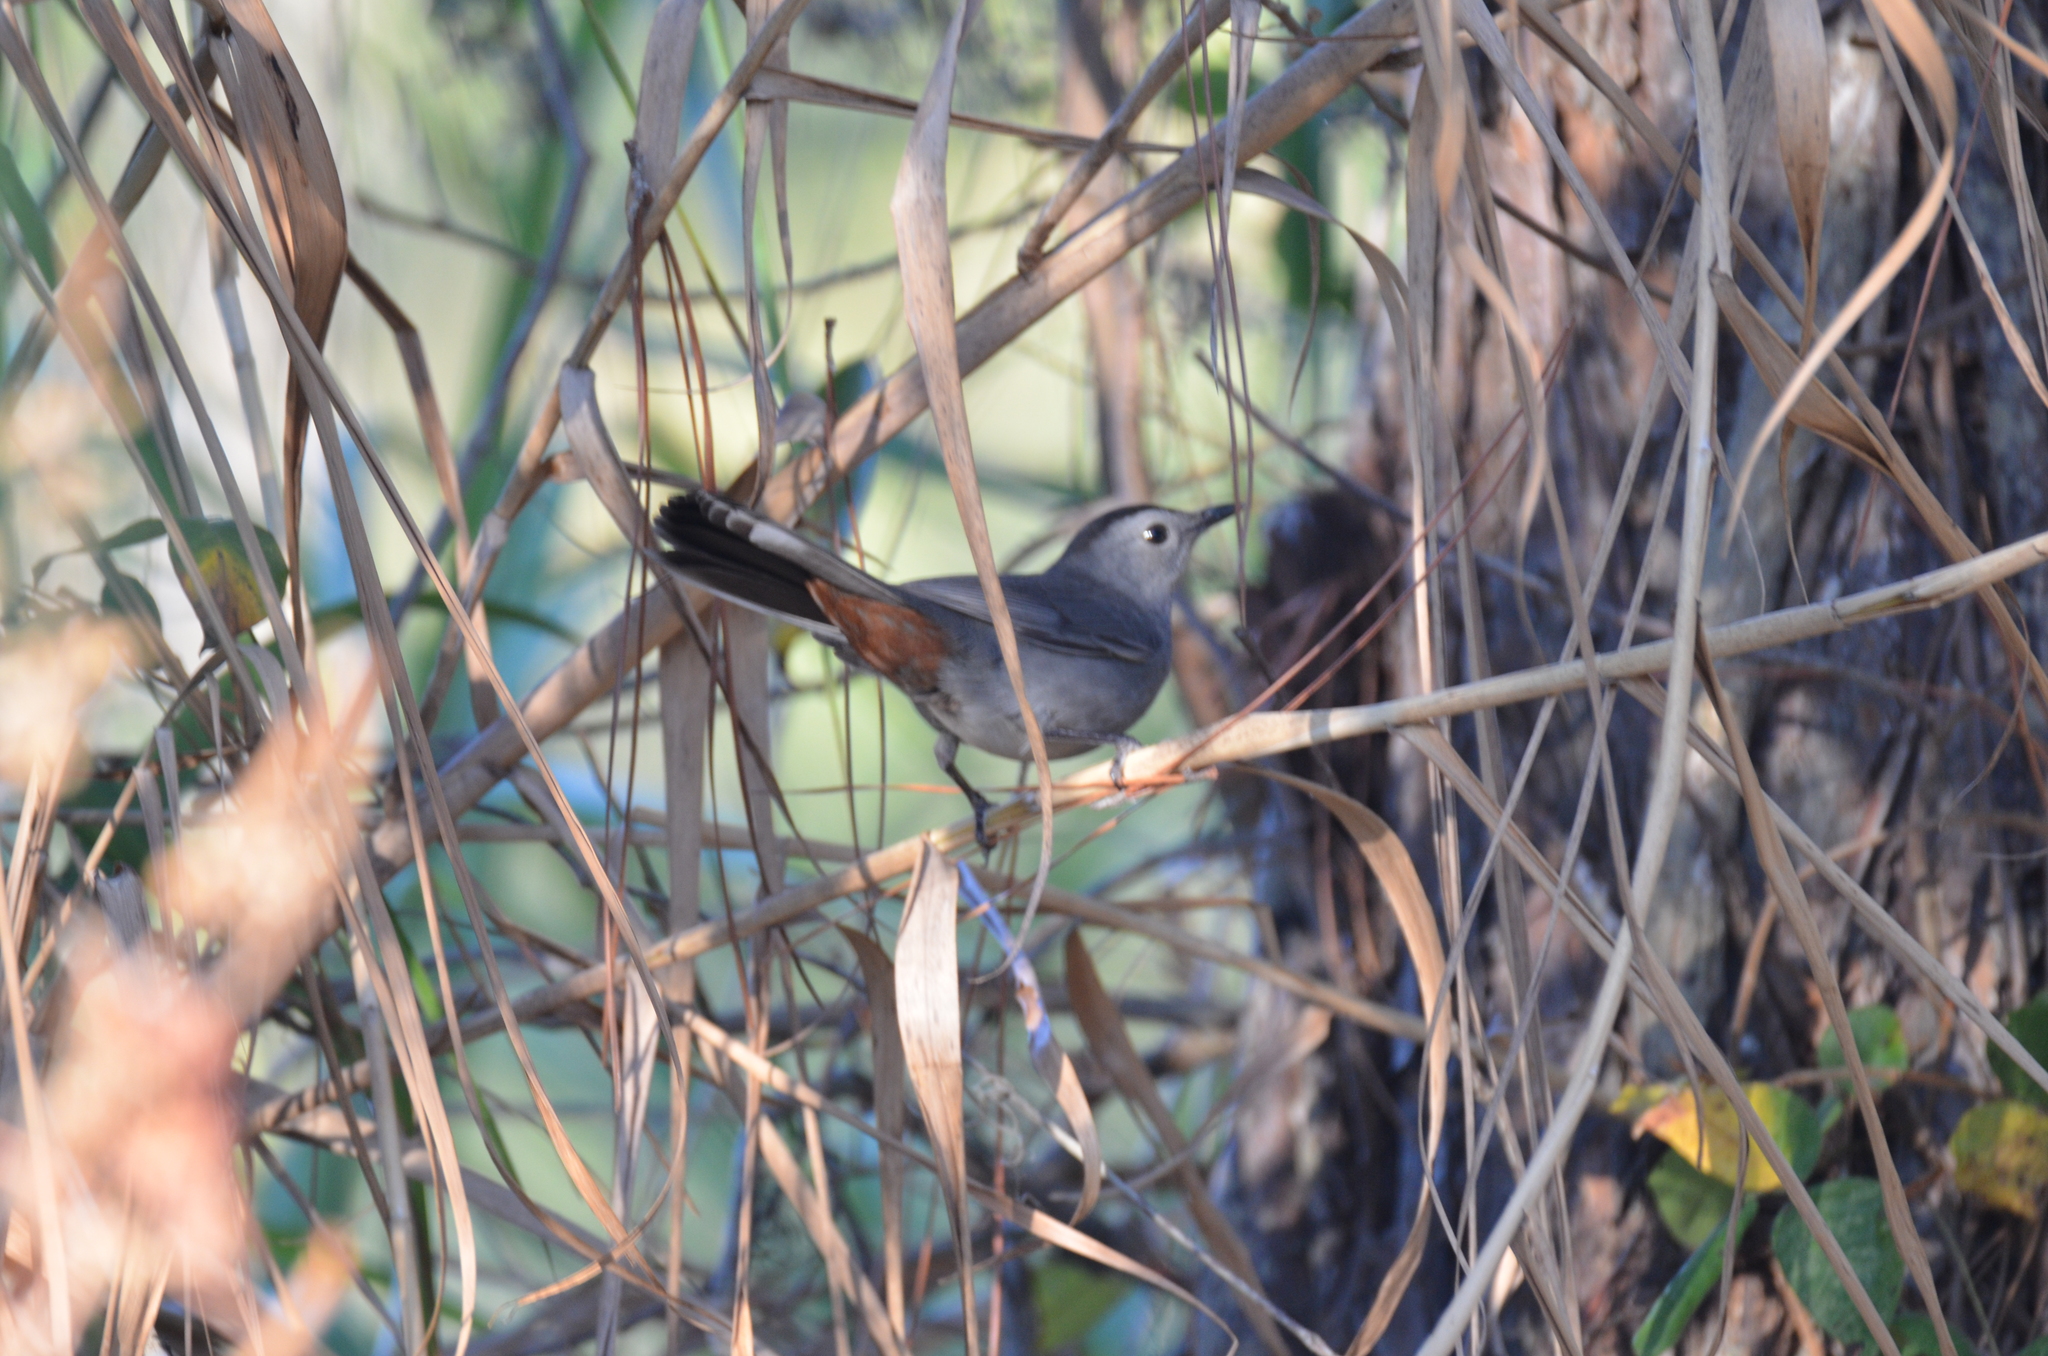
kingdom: Animalia
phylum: Chordata
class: Aves
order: Passeriformes
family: Mimidae
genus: Dumetella
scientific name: Dumetella carolinensis
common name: Gray catbird
